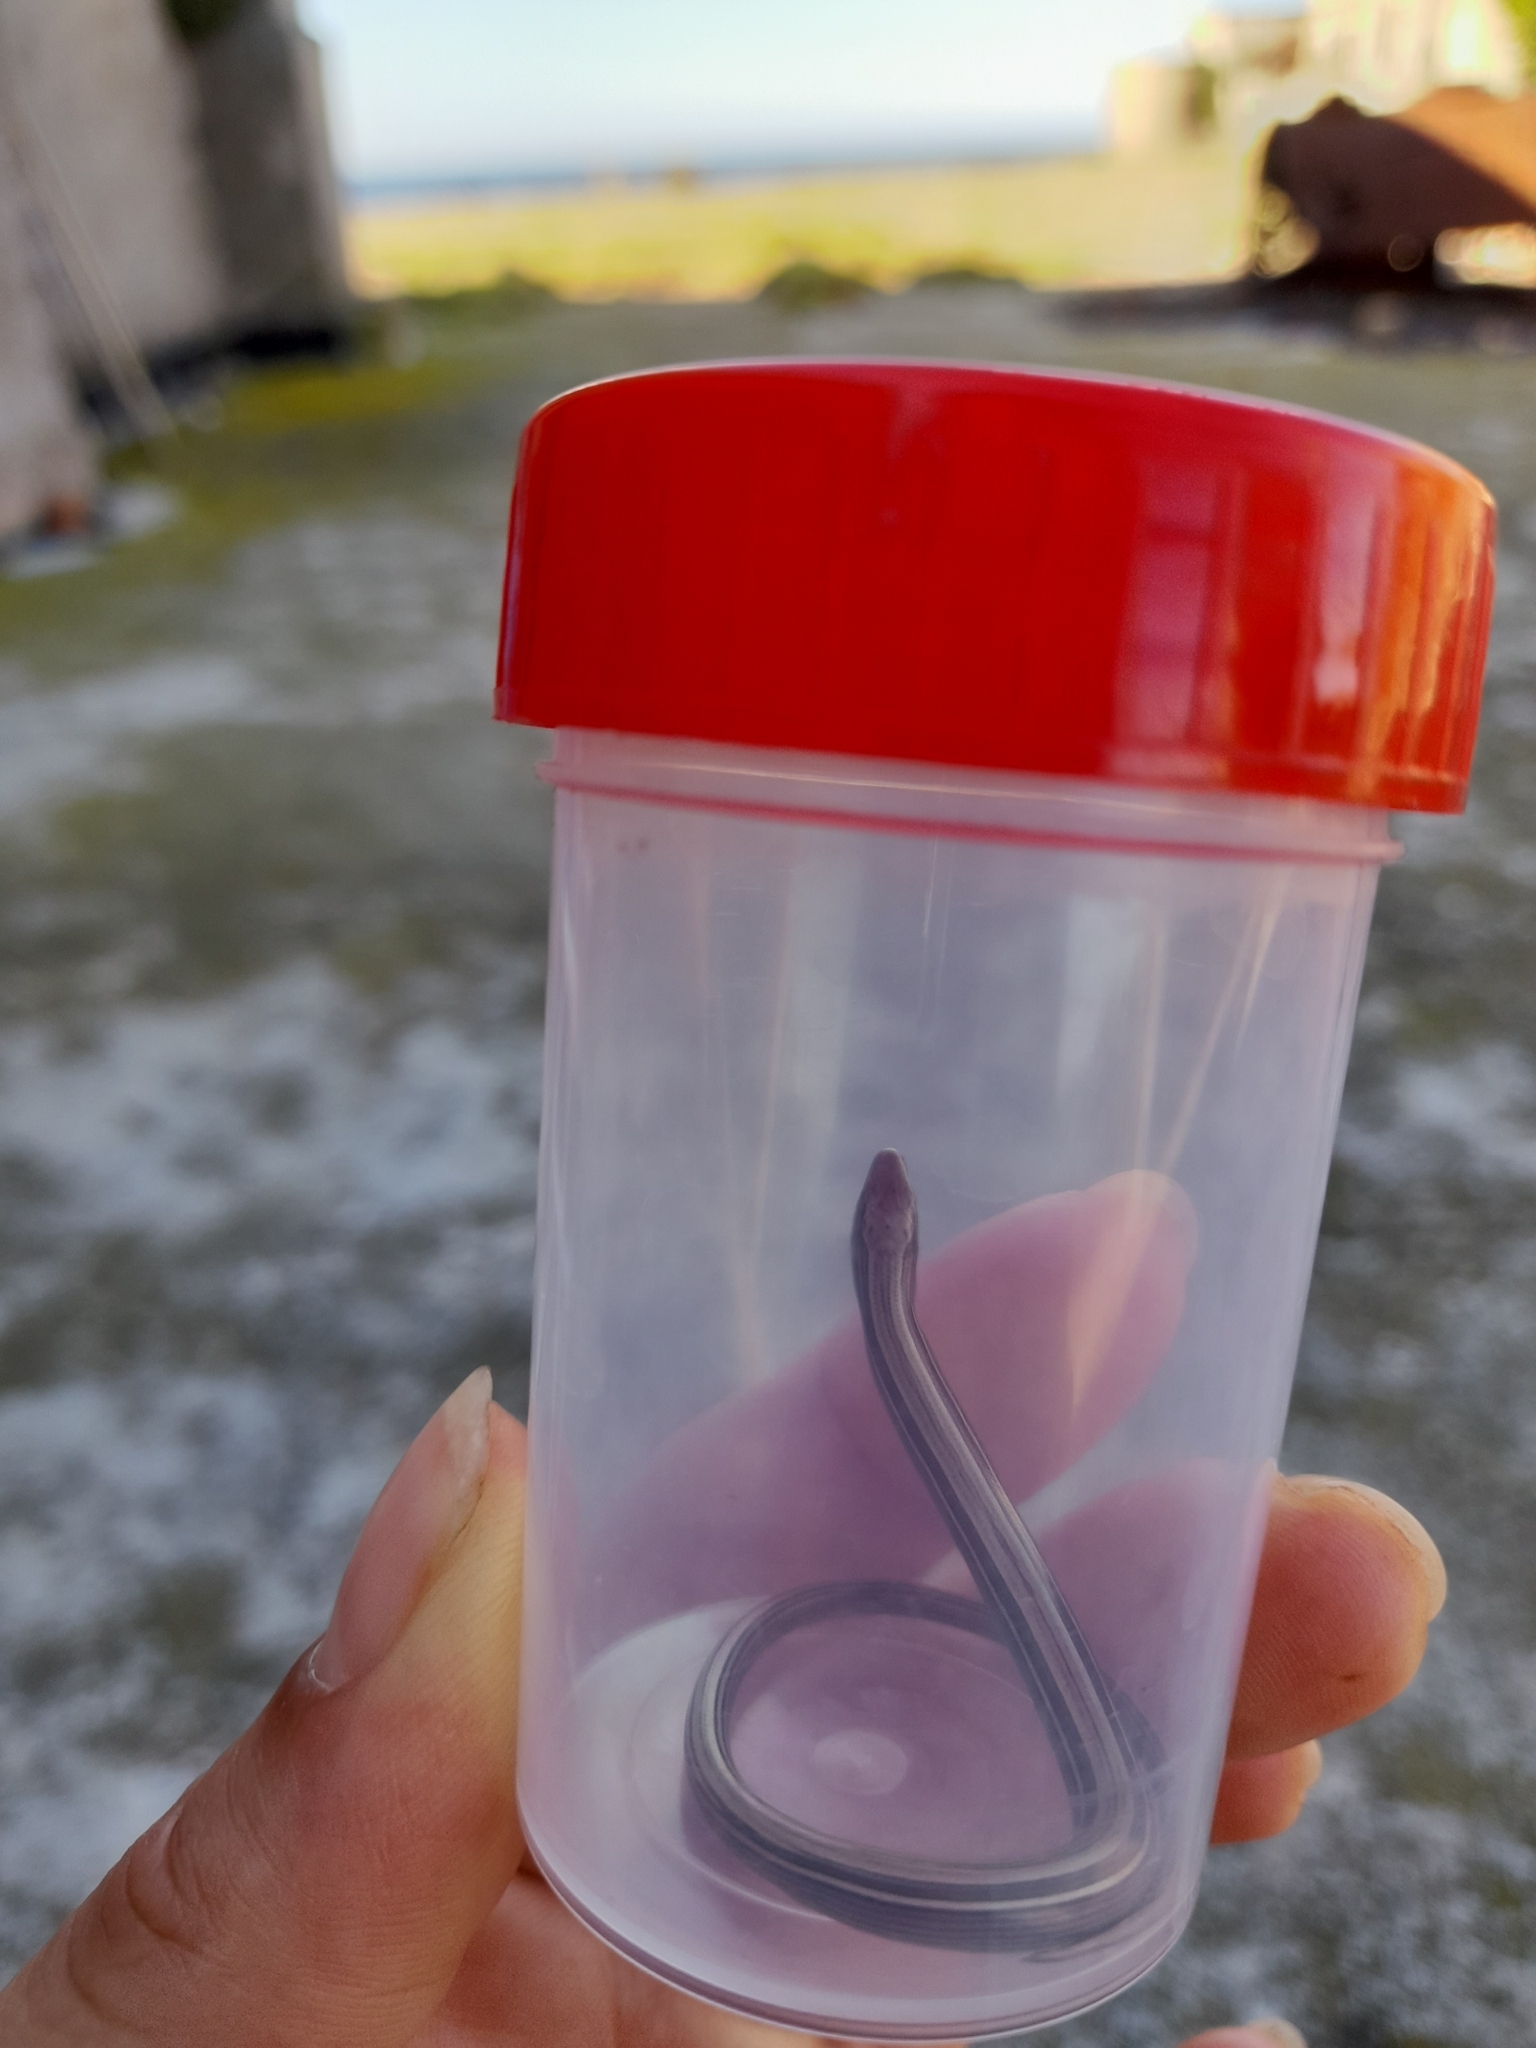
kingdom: Animalia
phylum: Chordata
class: Squamata
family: Diploglossidae
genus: Ophiodes
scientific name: Ophiodes vertebralis
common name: Jointed worm lizard
